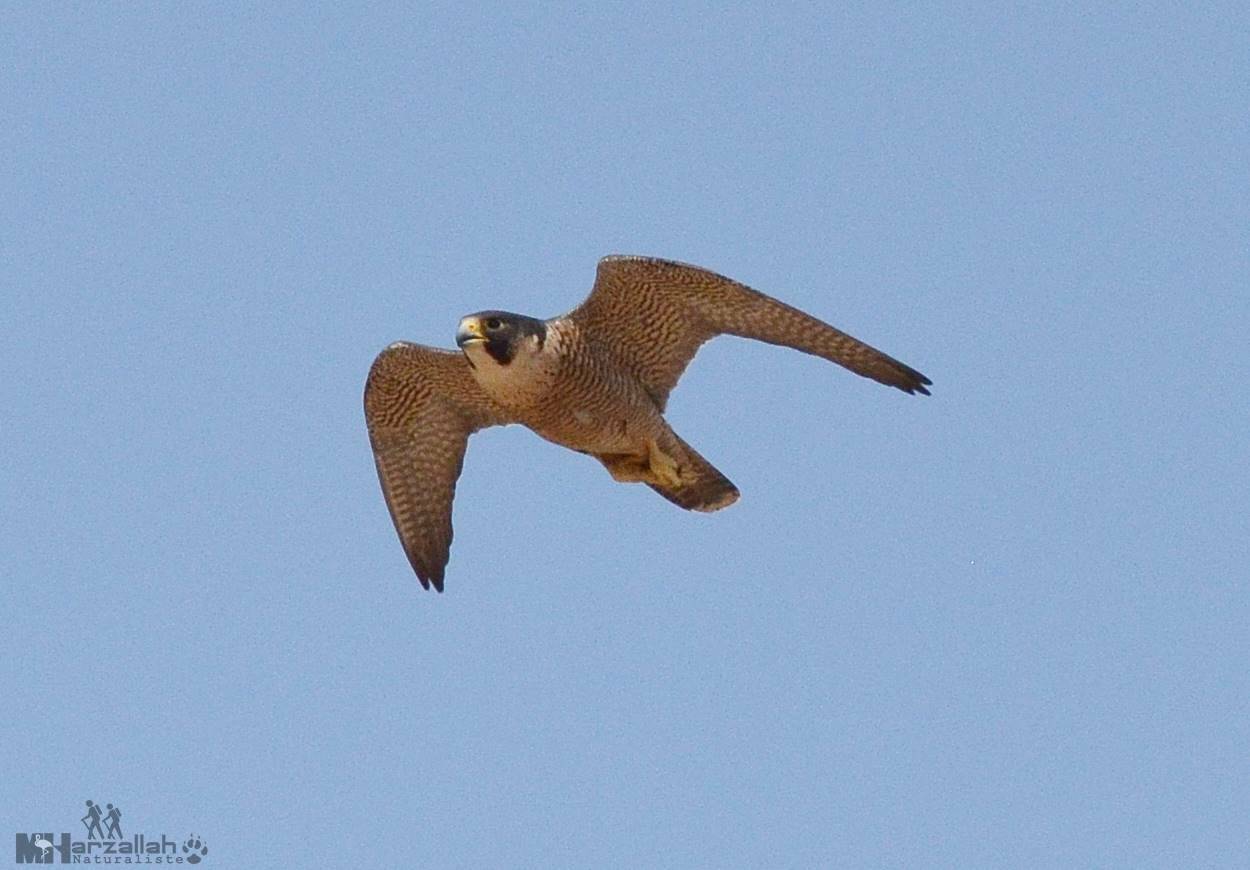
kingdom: Animalia
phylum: Chordata
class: Aves
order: Falconiformes
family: Falconidae
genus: Falco
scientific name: Falco peregrinus
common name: Peregrine falcon
